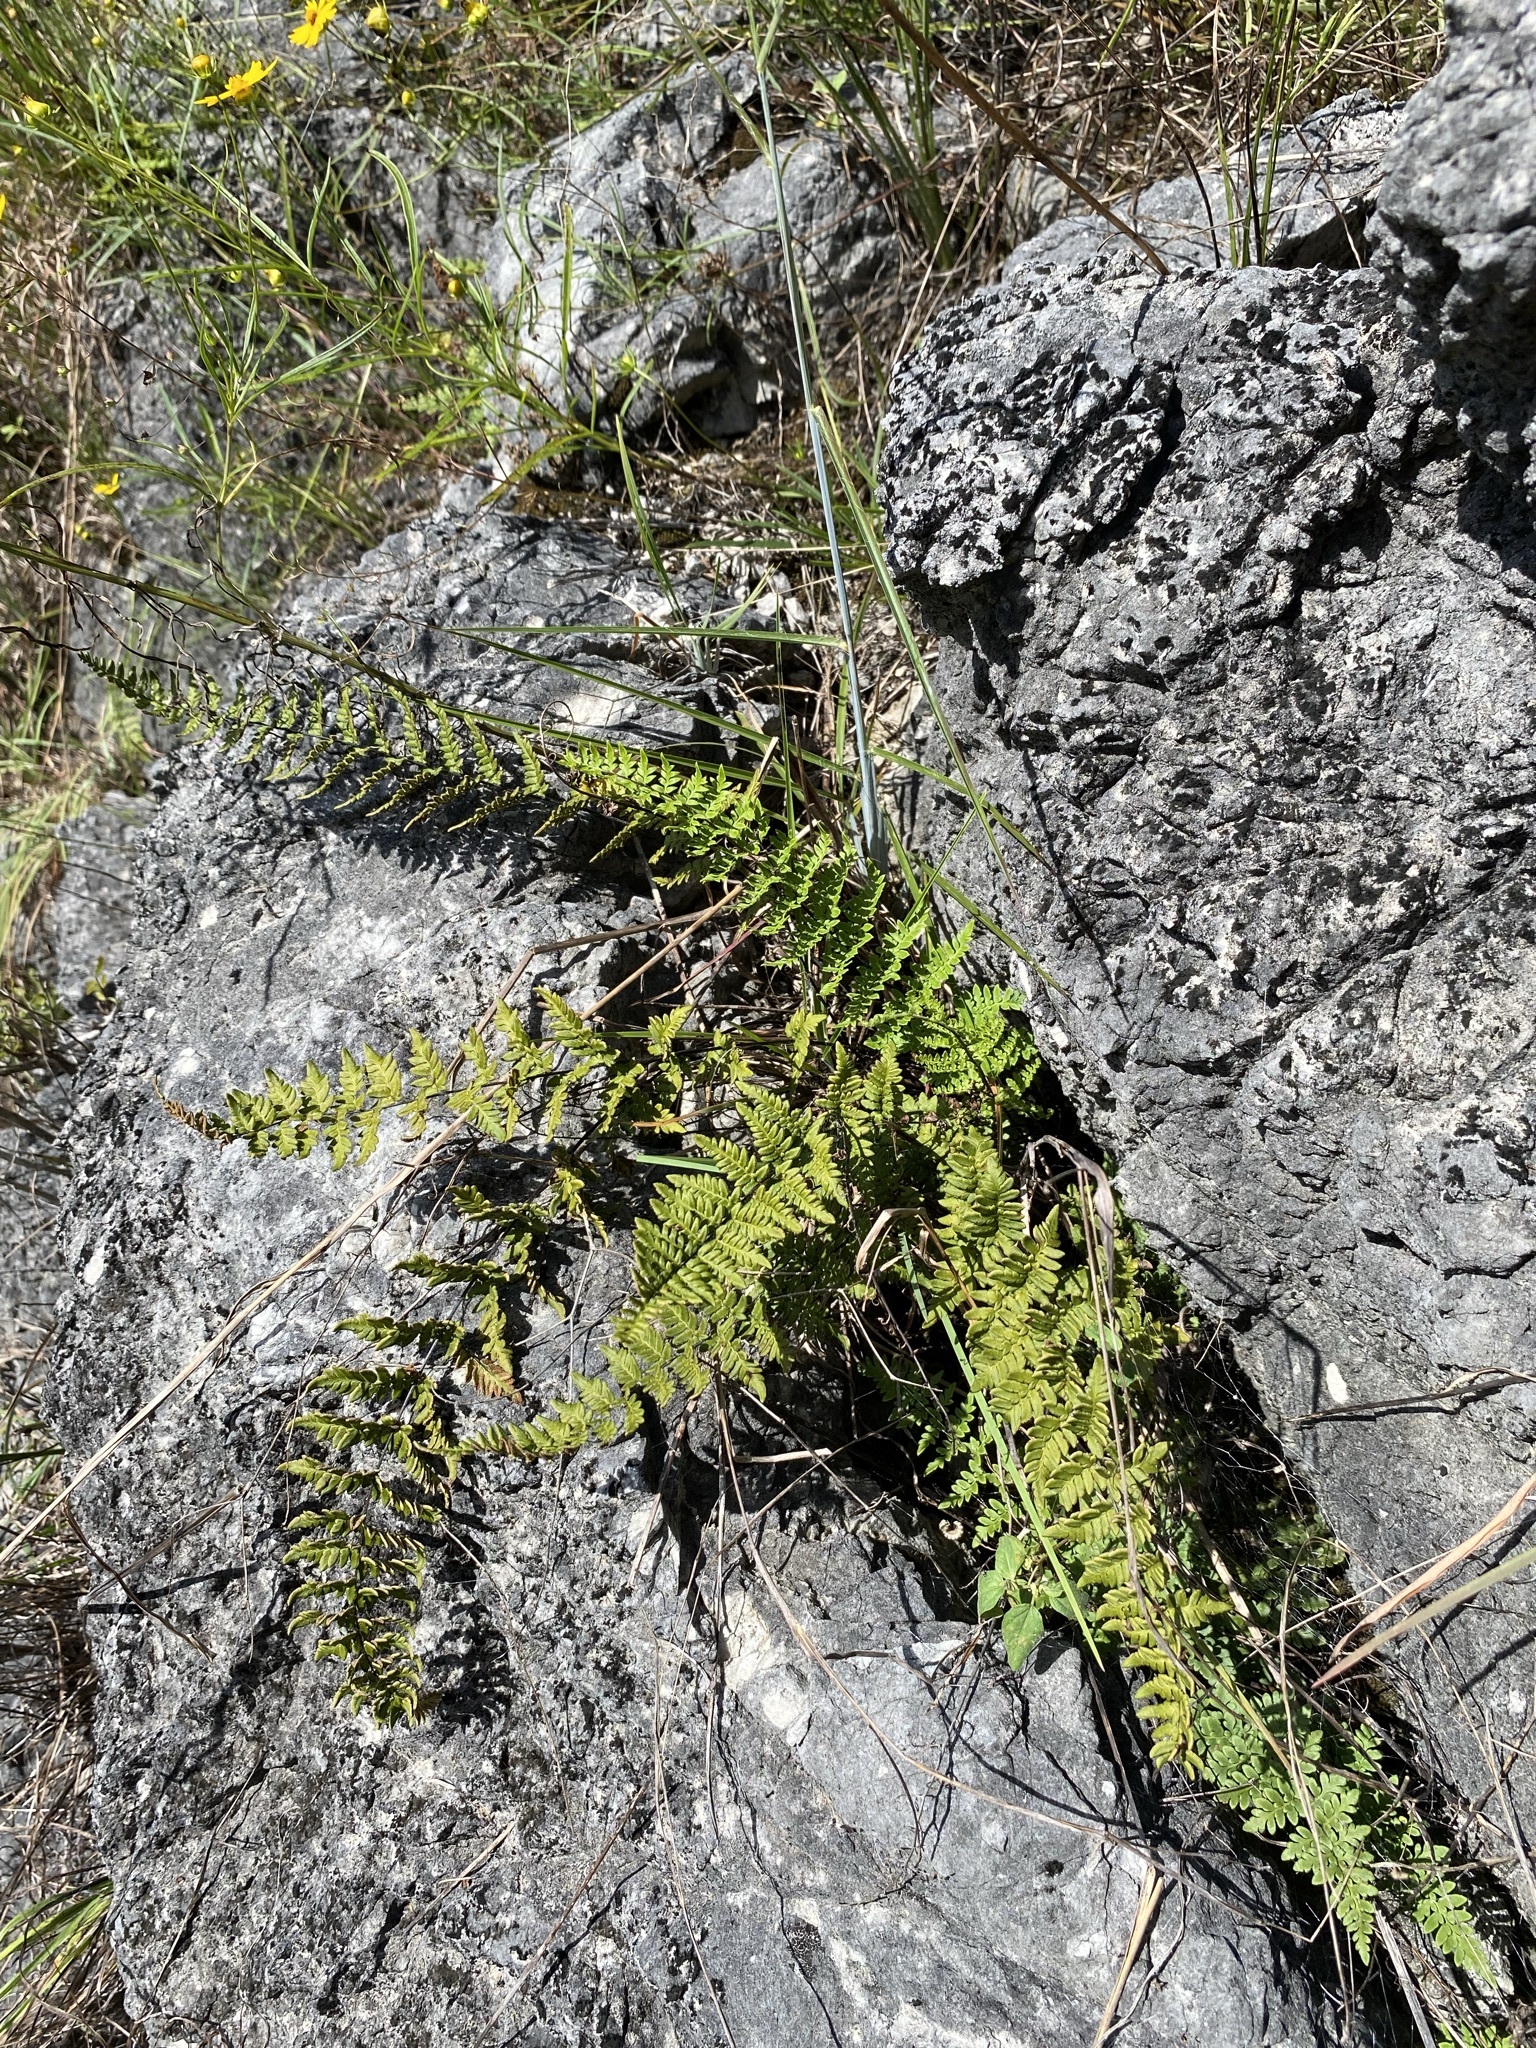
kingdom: Plantae
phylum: Tracheophyta
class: Polypodiopsida
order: Polypodiales
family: Pteridaceae
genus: Myriopteris
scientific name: Myriopteris alabamensis
